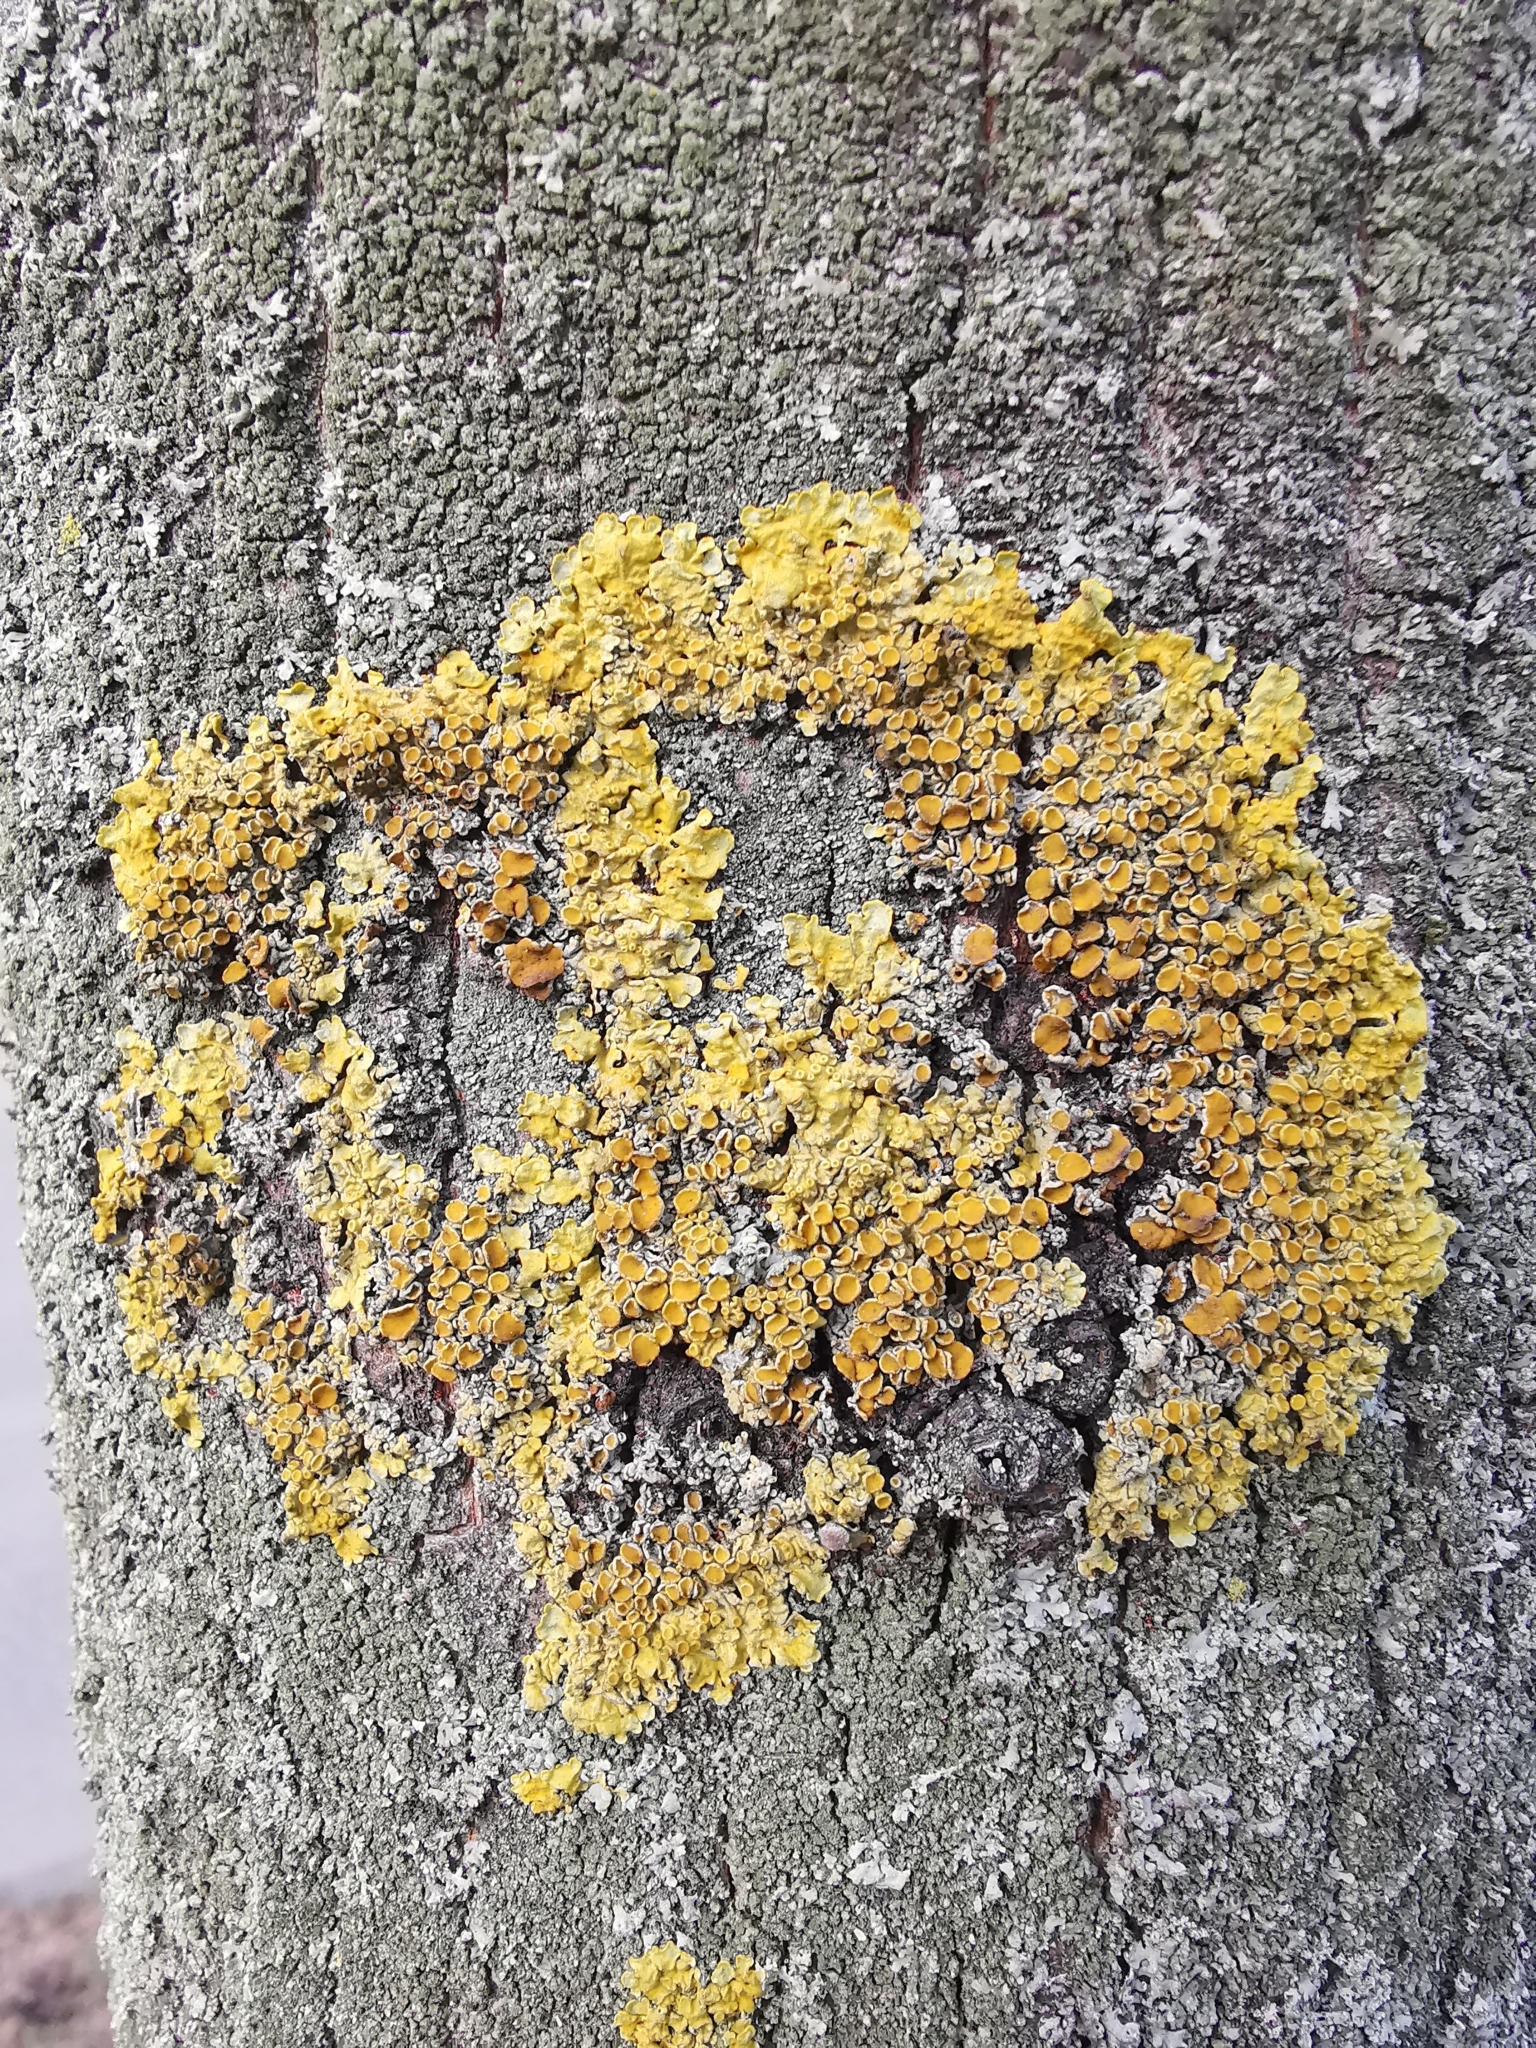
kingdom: Fungi
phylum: Ascomycota
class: Lecanoromycetes
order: Teloschistales
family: Teloschistaceae
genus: Xanthoria
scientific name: Xanthoria parietina
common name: Common orange lichen
